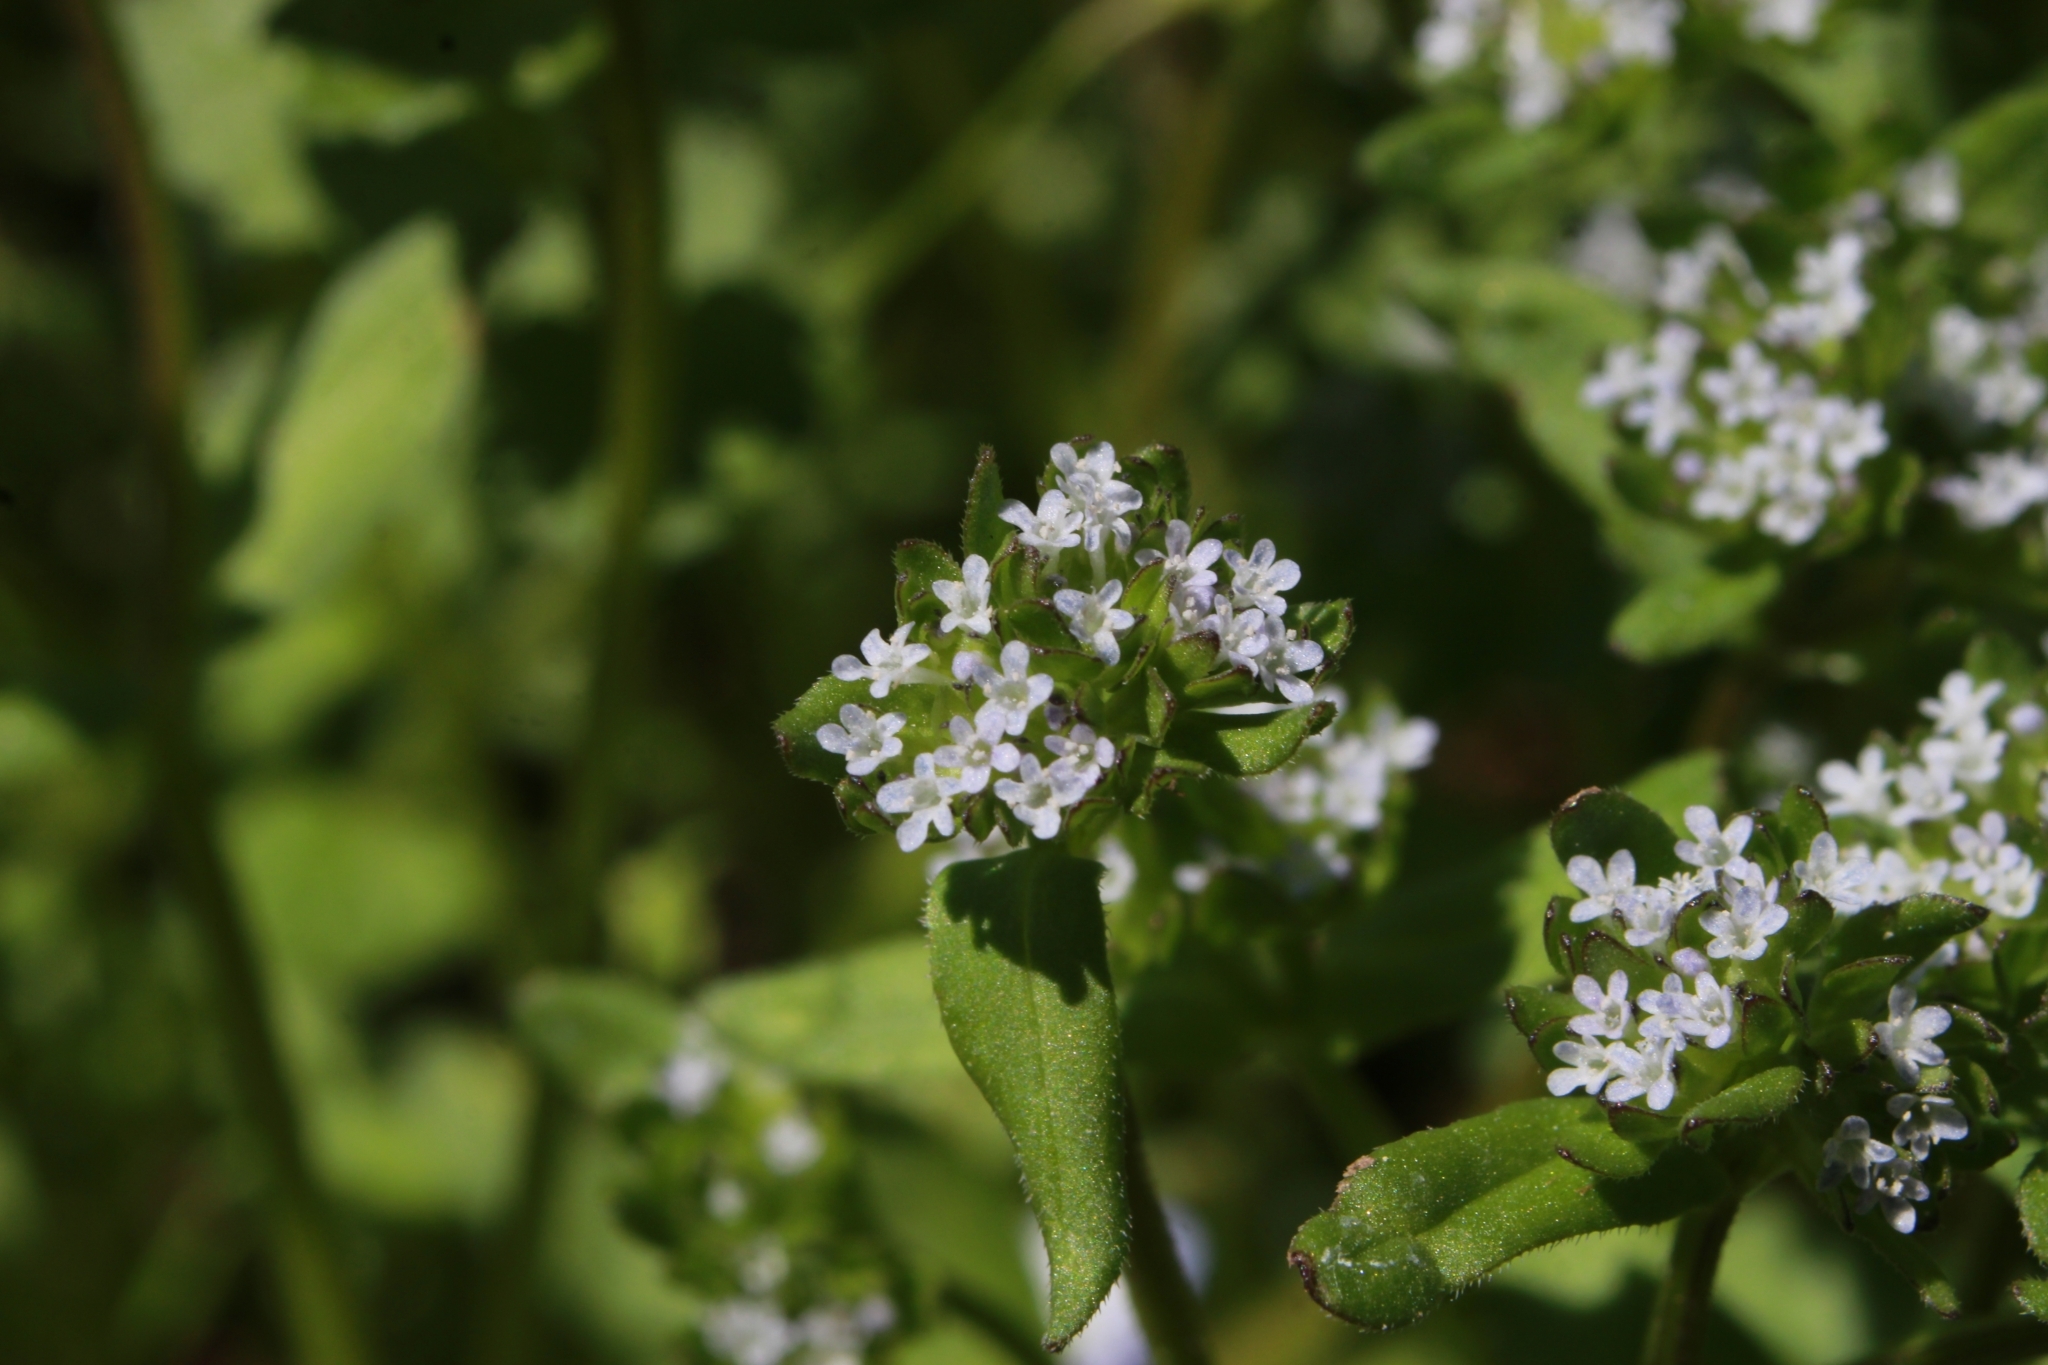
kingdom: Plantae
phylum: Tracheophyta
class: Magnoliopsida
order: Dipsacales
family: Caprifoliaceae
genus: Valerianella
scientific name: Valerianella locusta
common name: Common cornsalad
